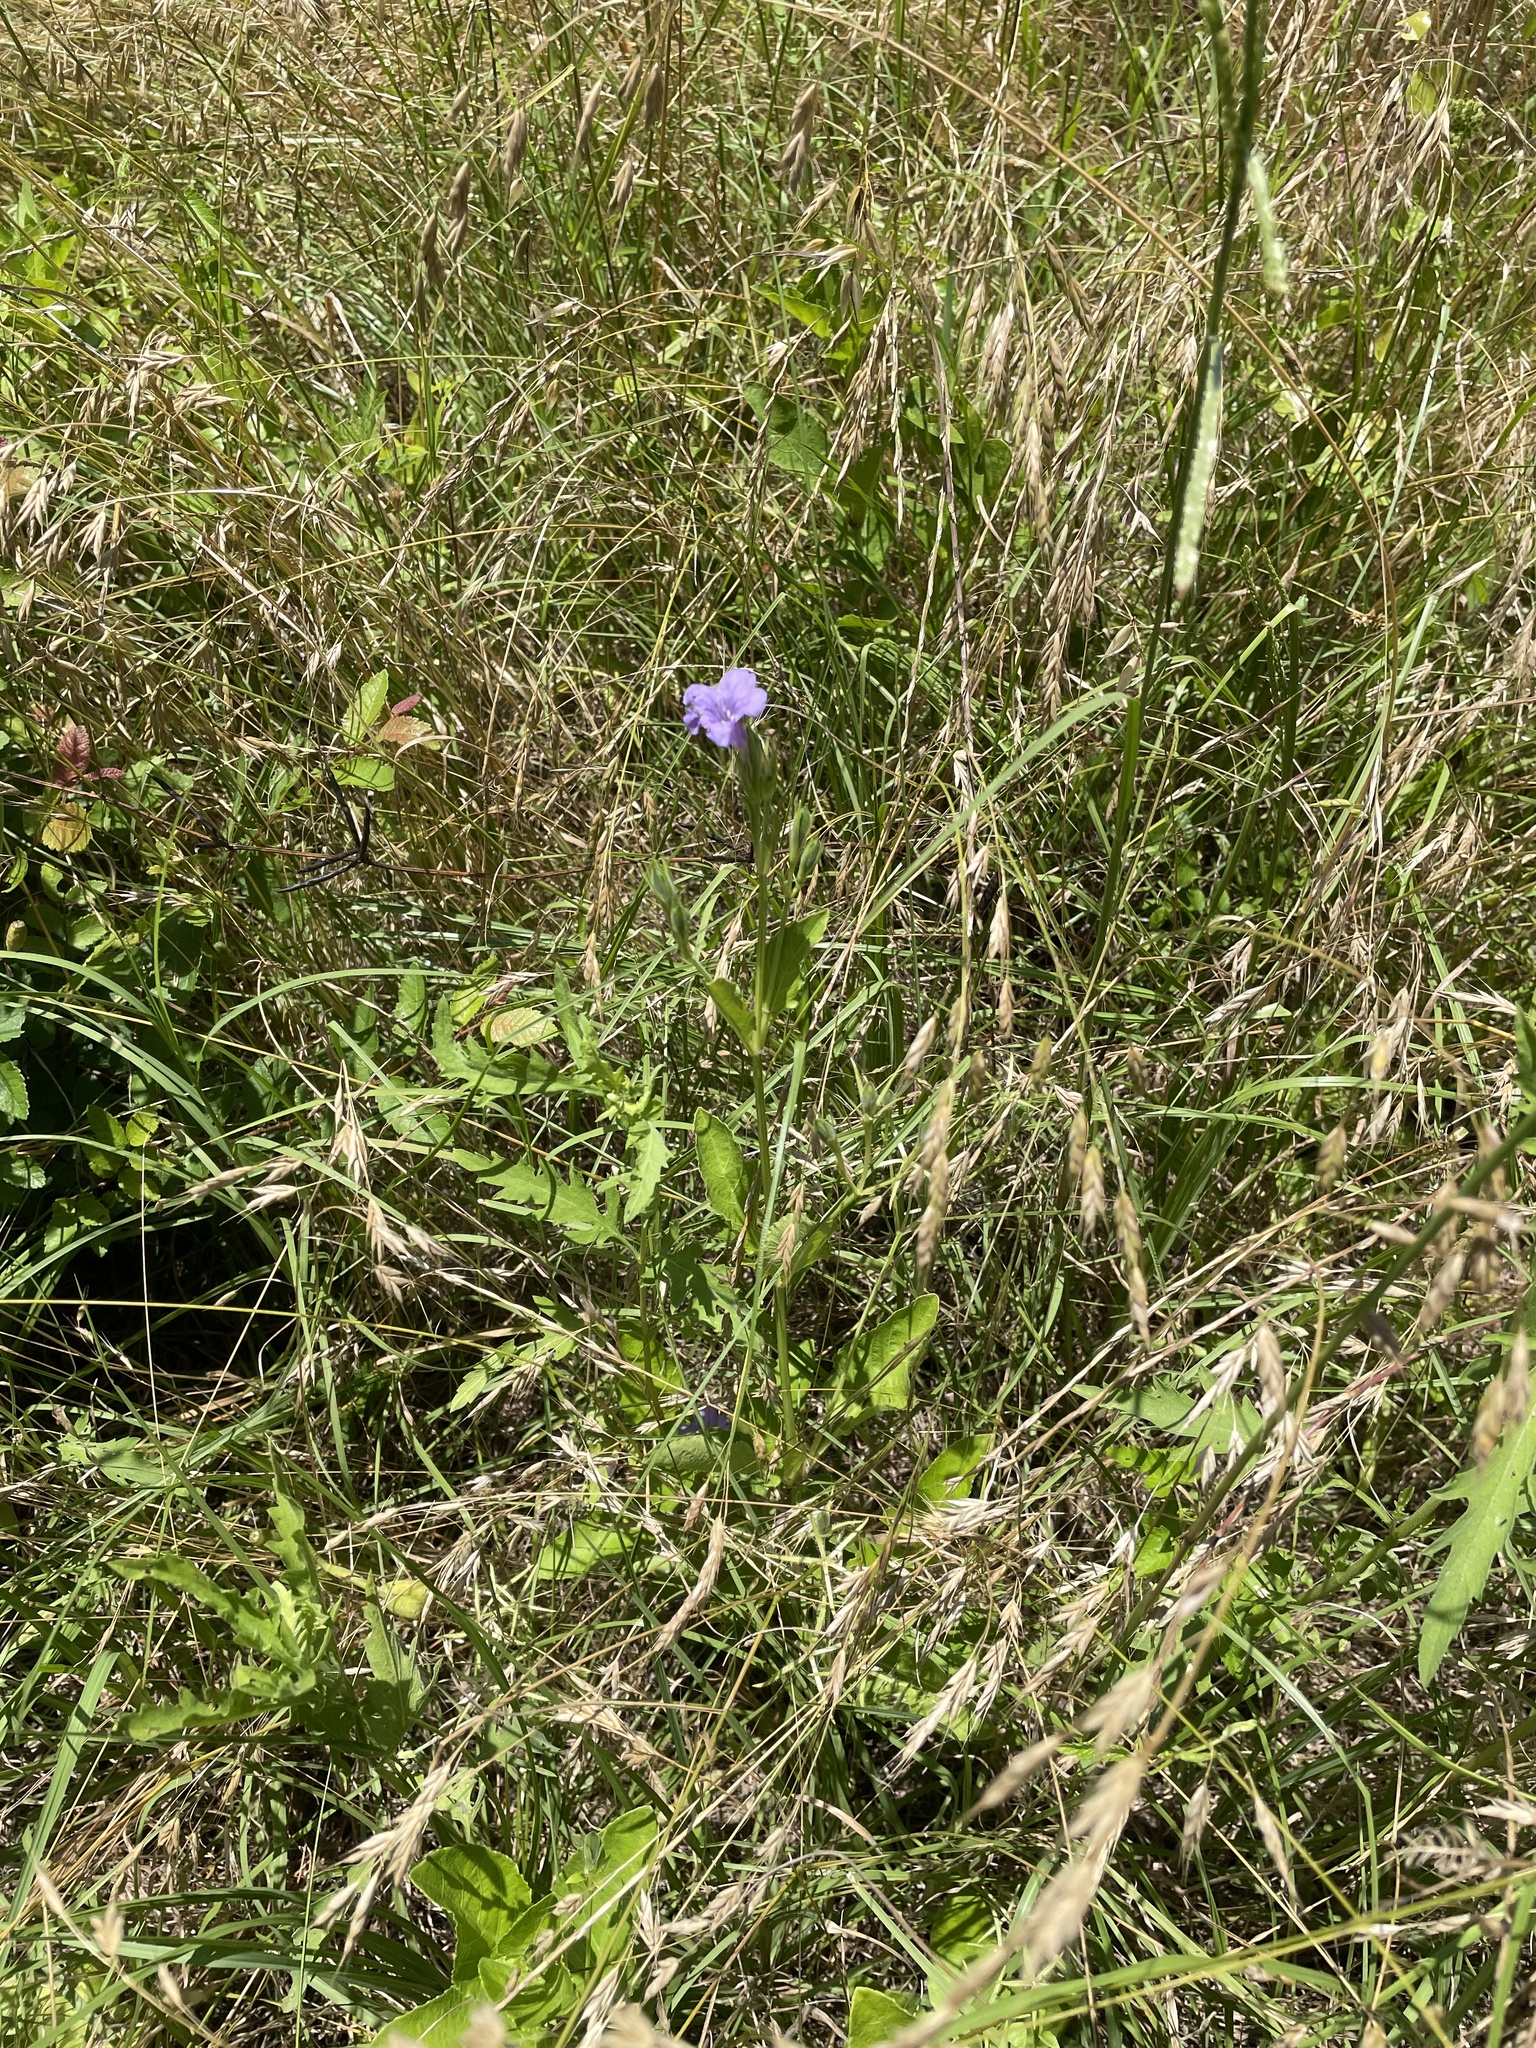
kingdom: Plantae
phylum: Tracheophyta
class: Magnoliopsida
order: Lamiales
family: Acanthaceae
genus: Ruellia
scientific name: Ruellia ciliatiflora
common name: Hairyflower wild petunia
